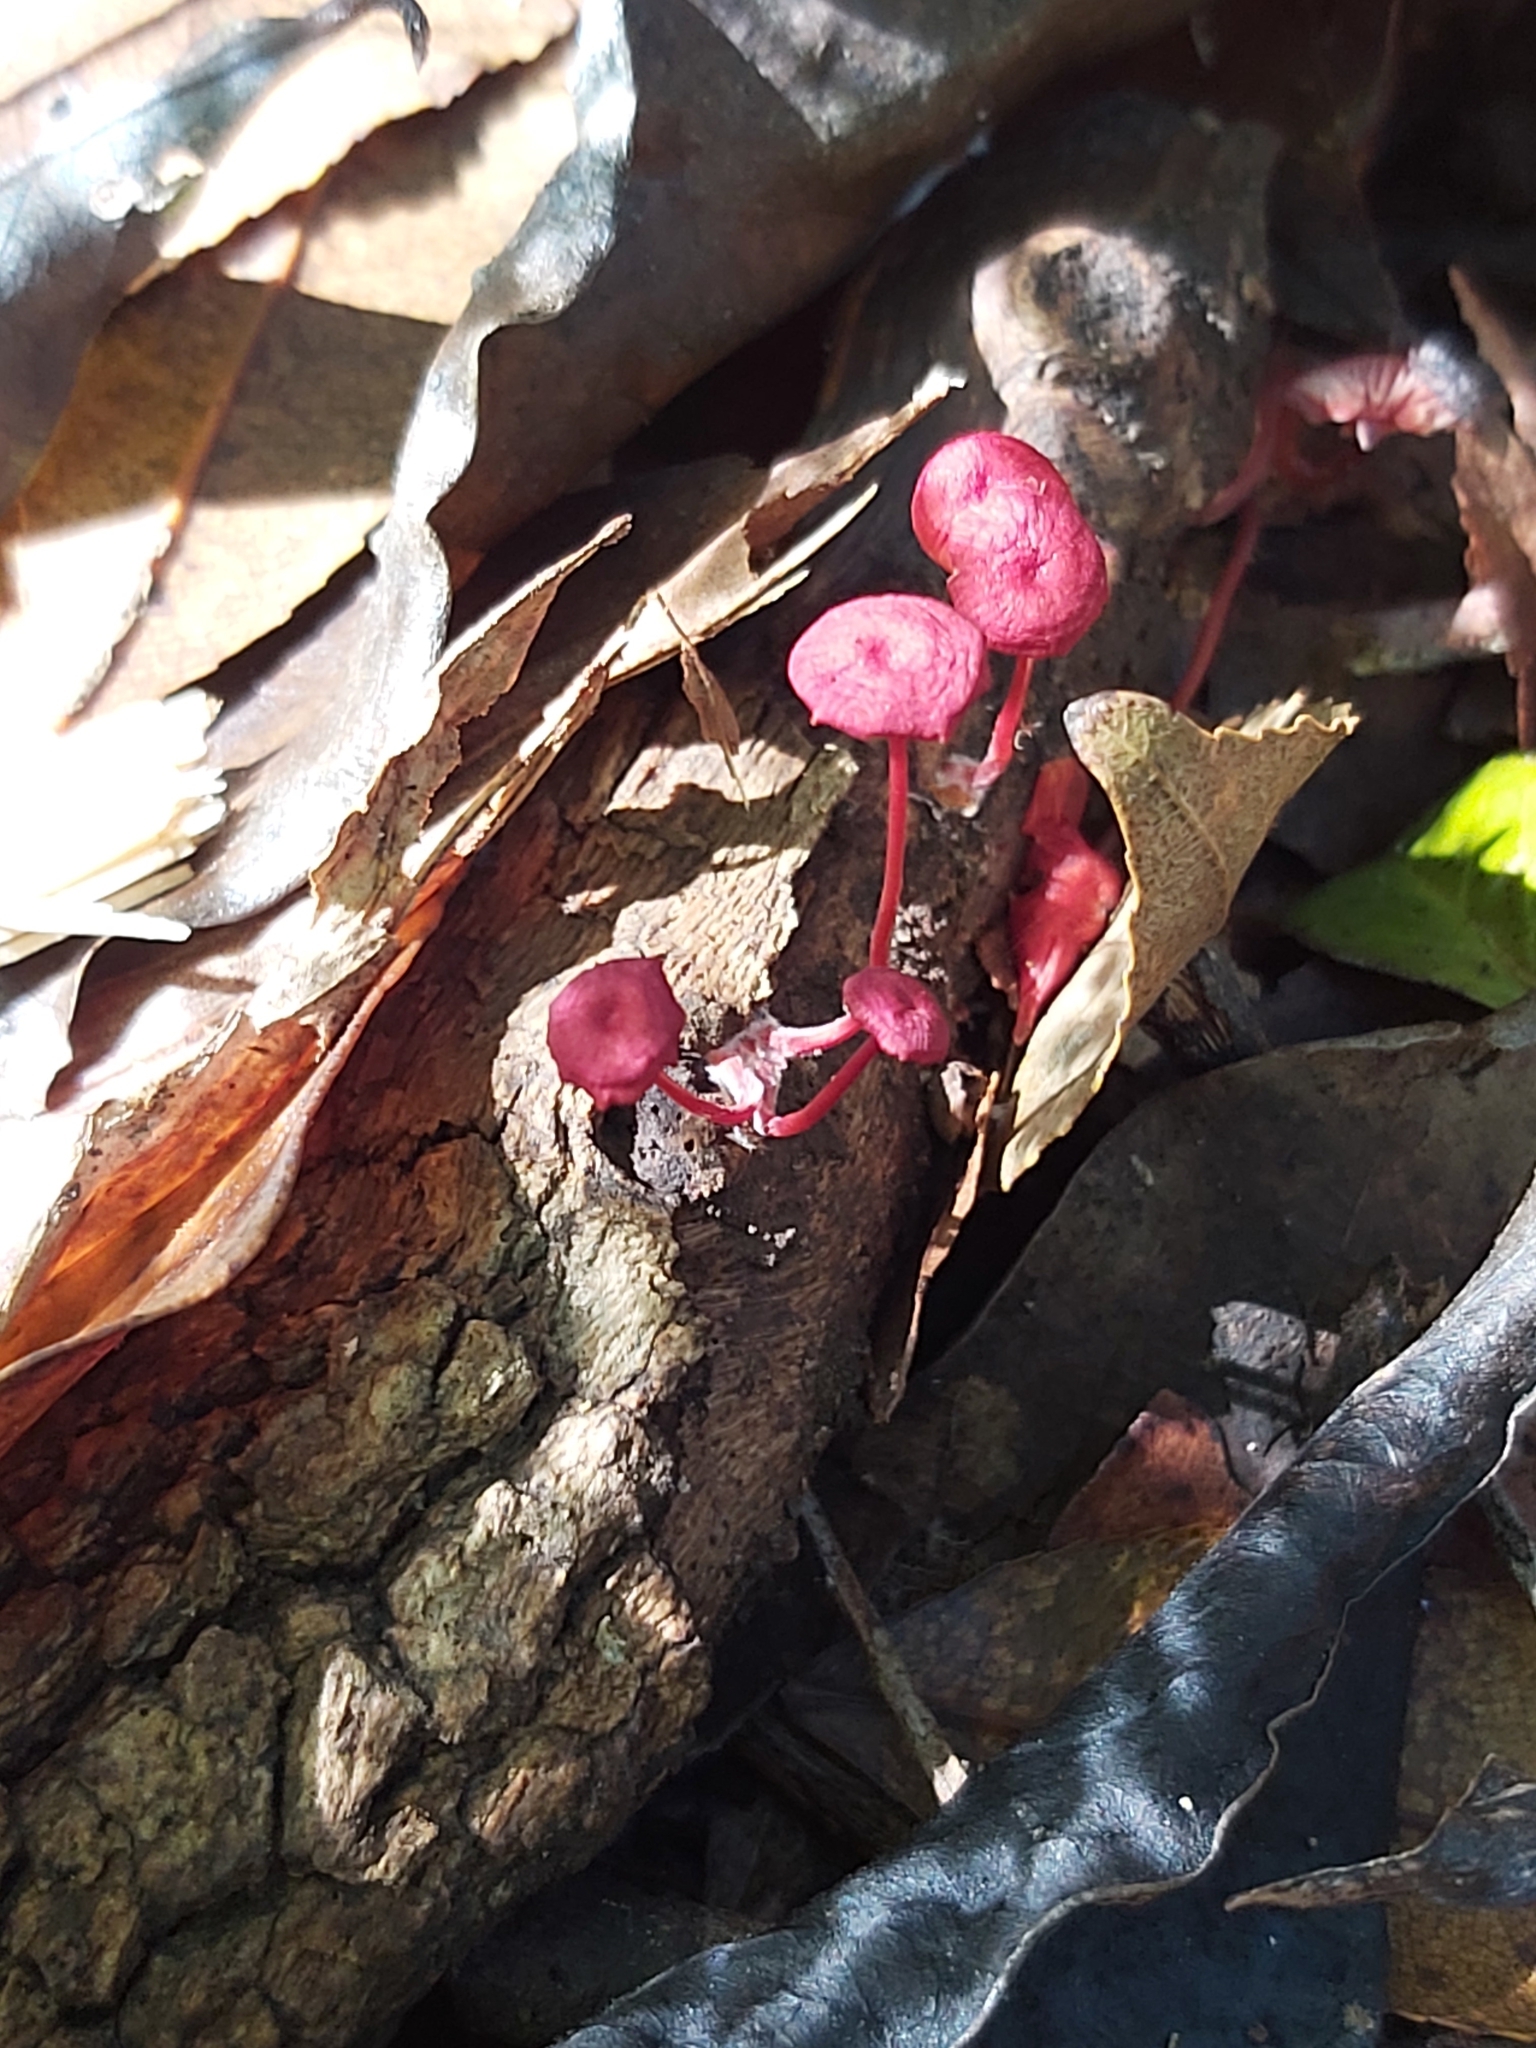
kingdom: Fungi
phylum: Basidiomycota
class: Agaricomycetes
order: Agaricales
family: Mycenaceae
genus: Cruentomycena
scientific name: Cruentomycena viscidocruenta
